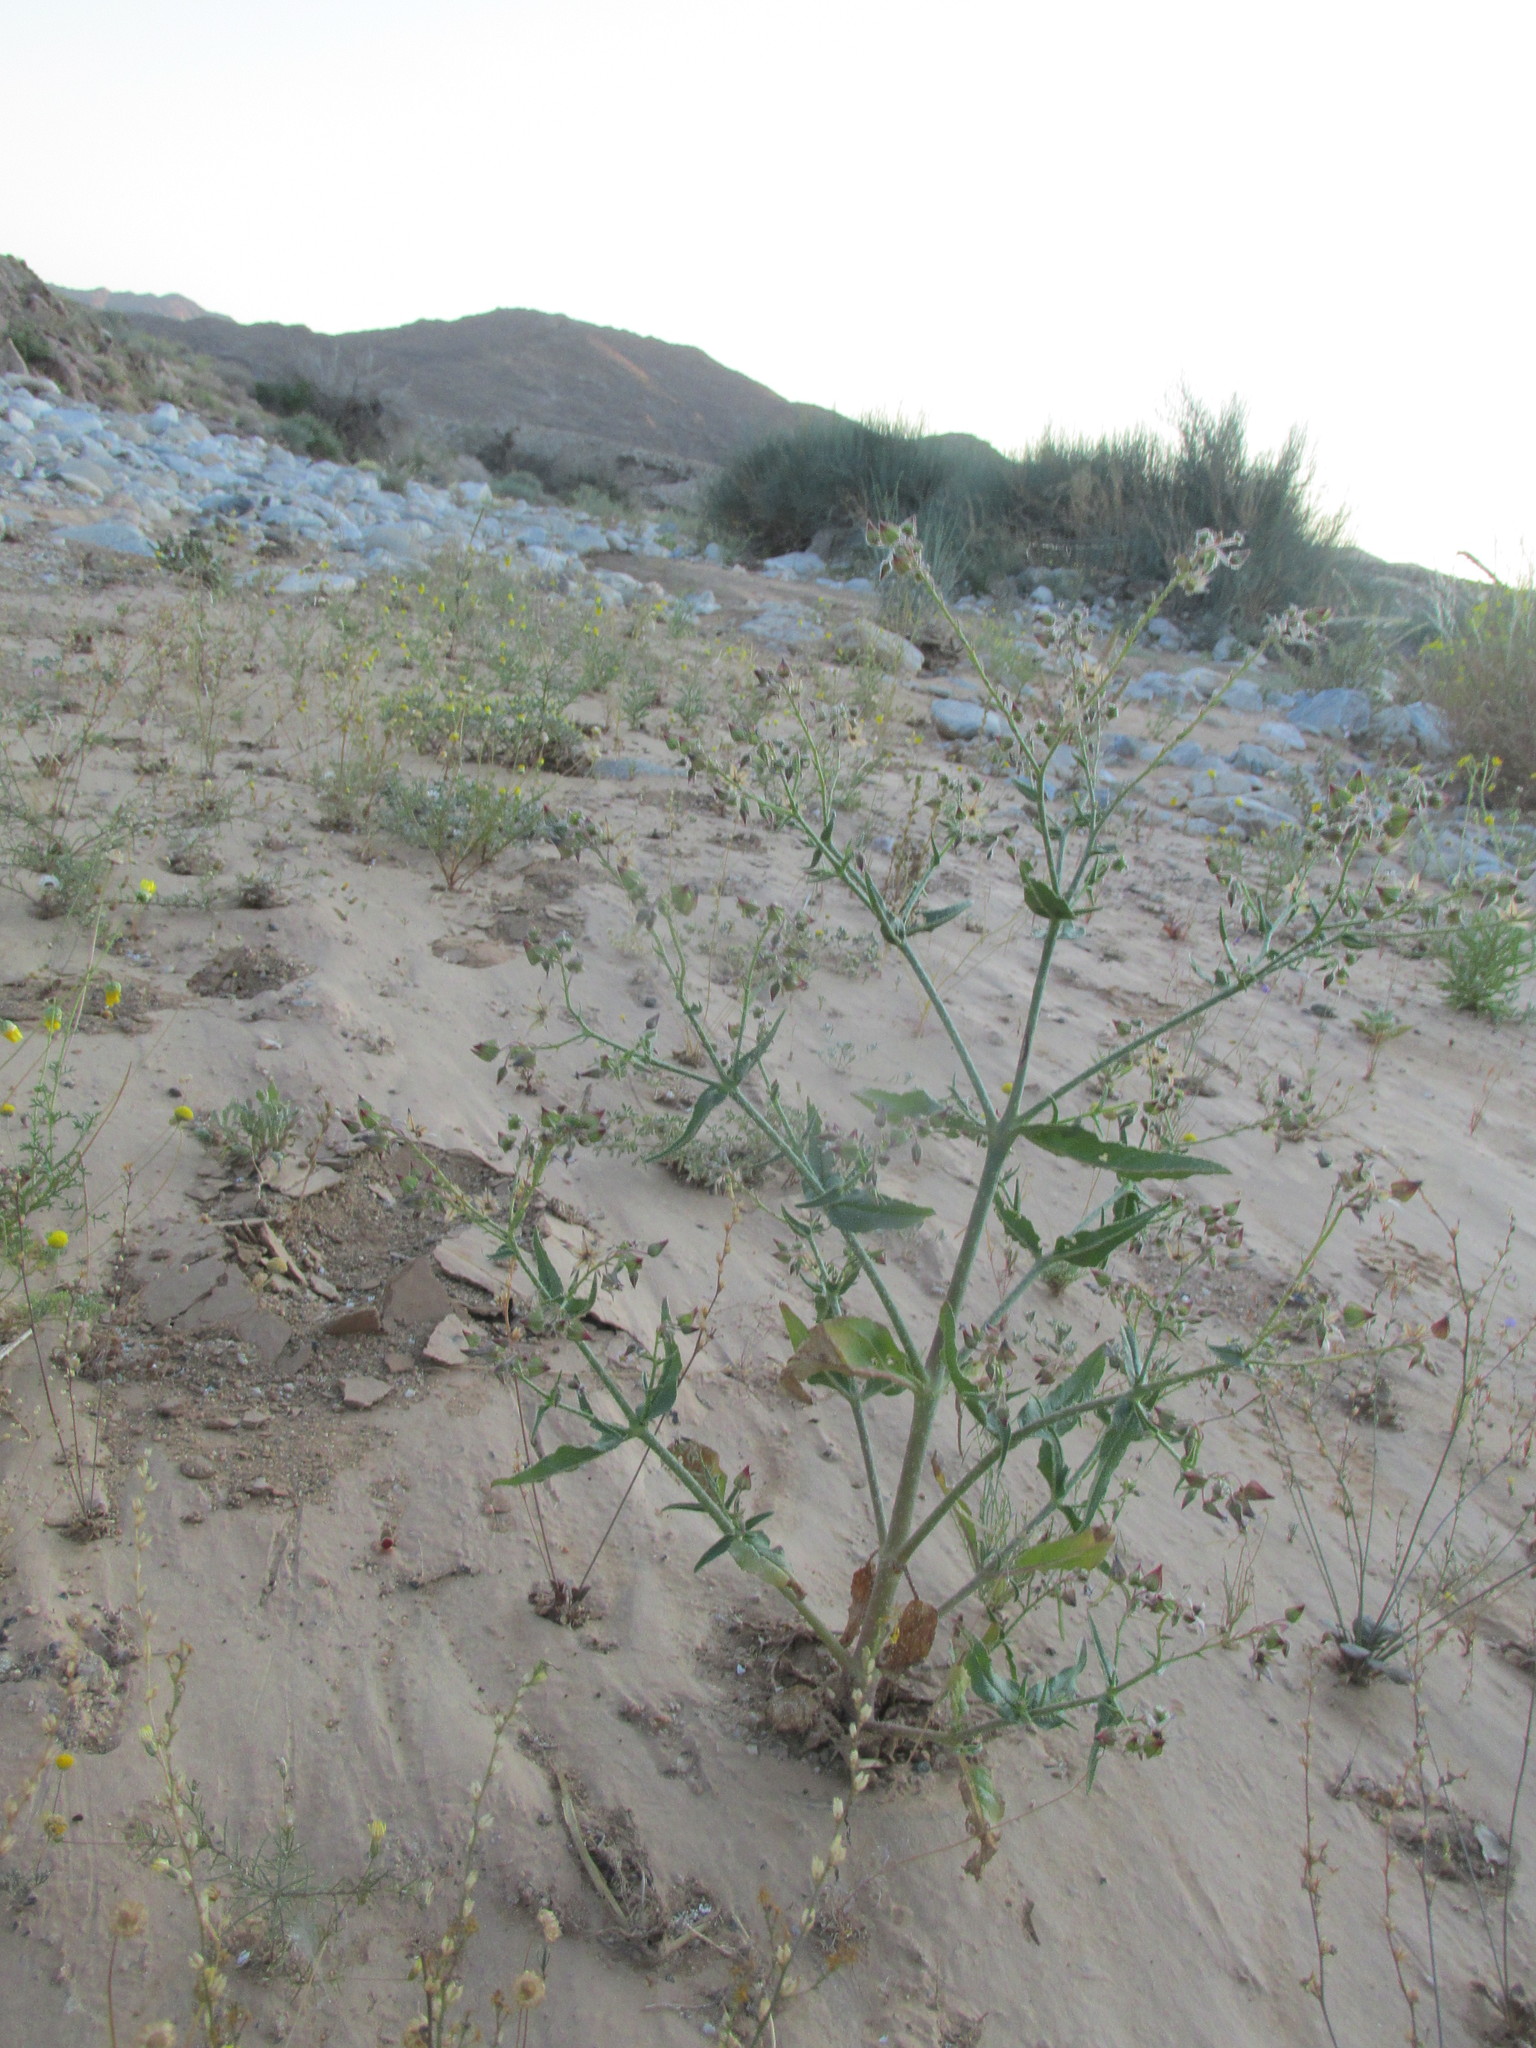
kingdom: Plantae
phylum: Tracheophyta
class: Magnoliopsida
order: Boraginales
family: Boraginaceae
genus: Trichodesma
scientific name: Trichodesma africanum
